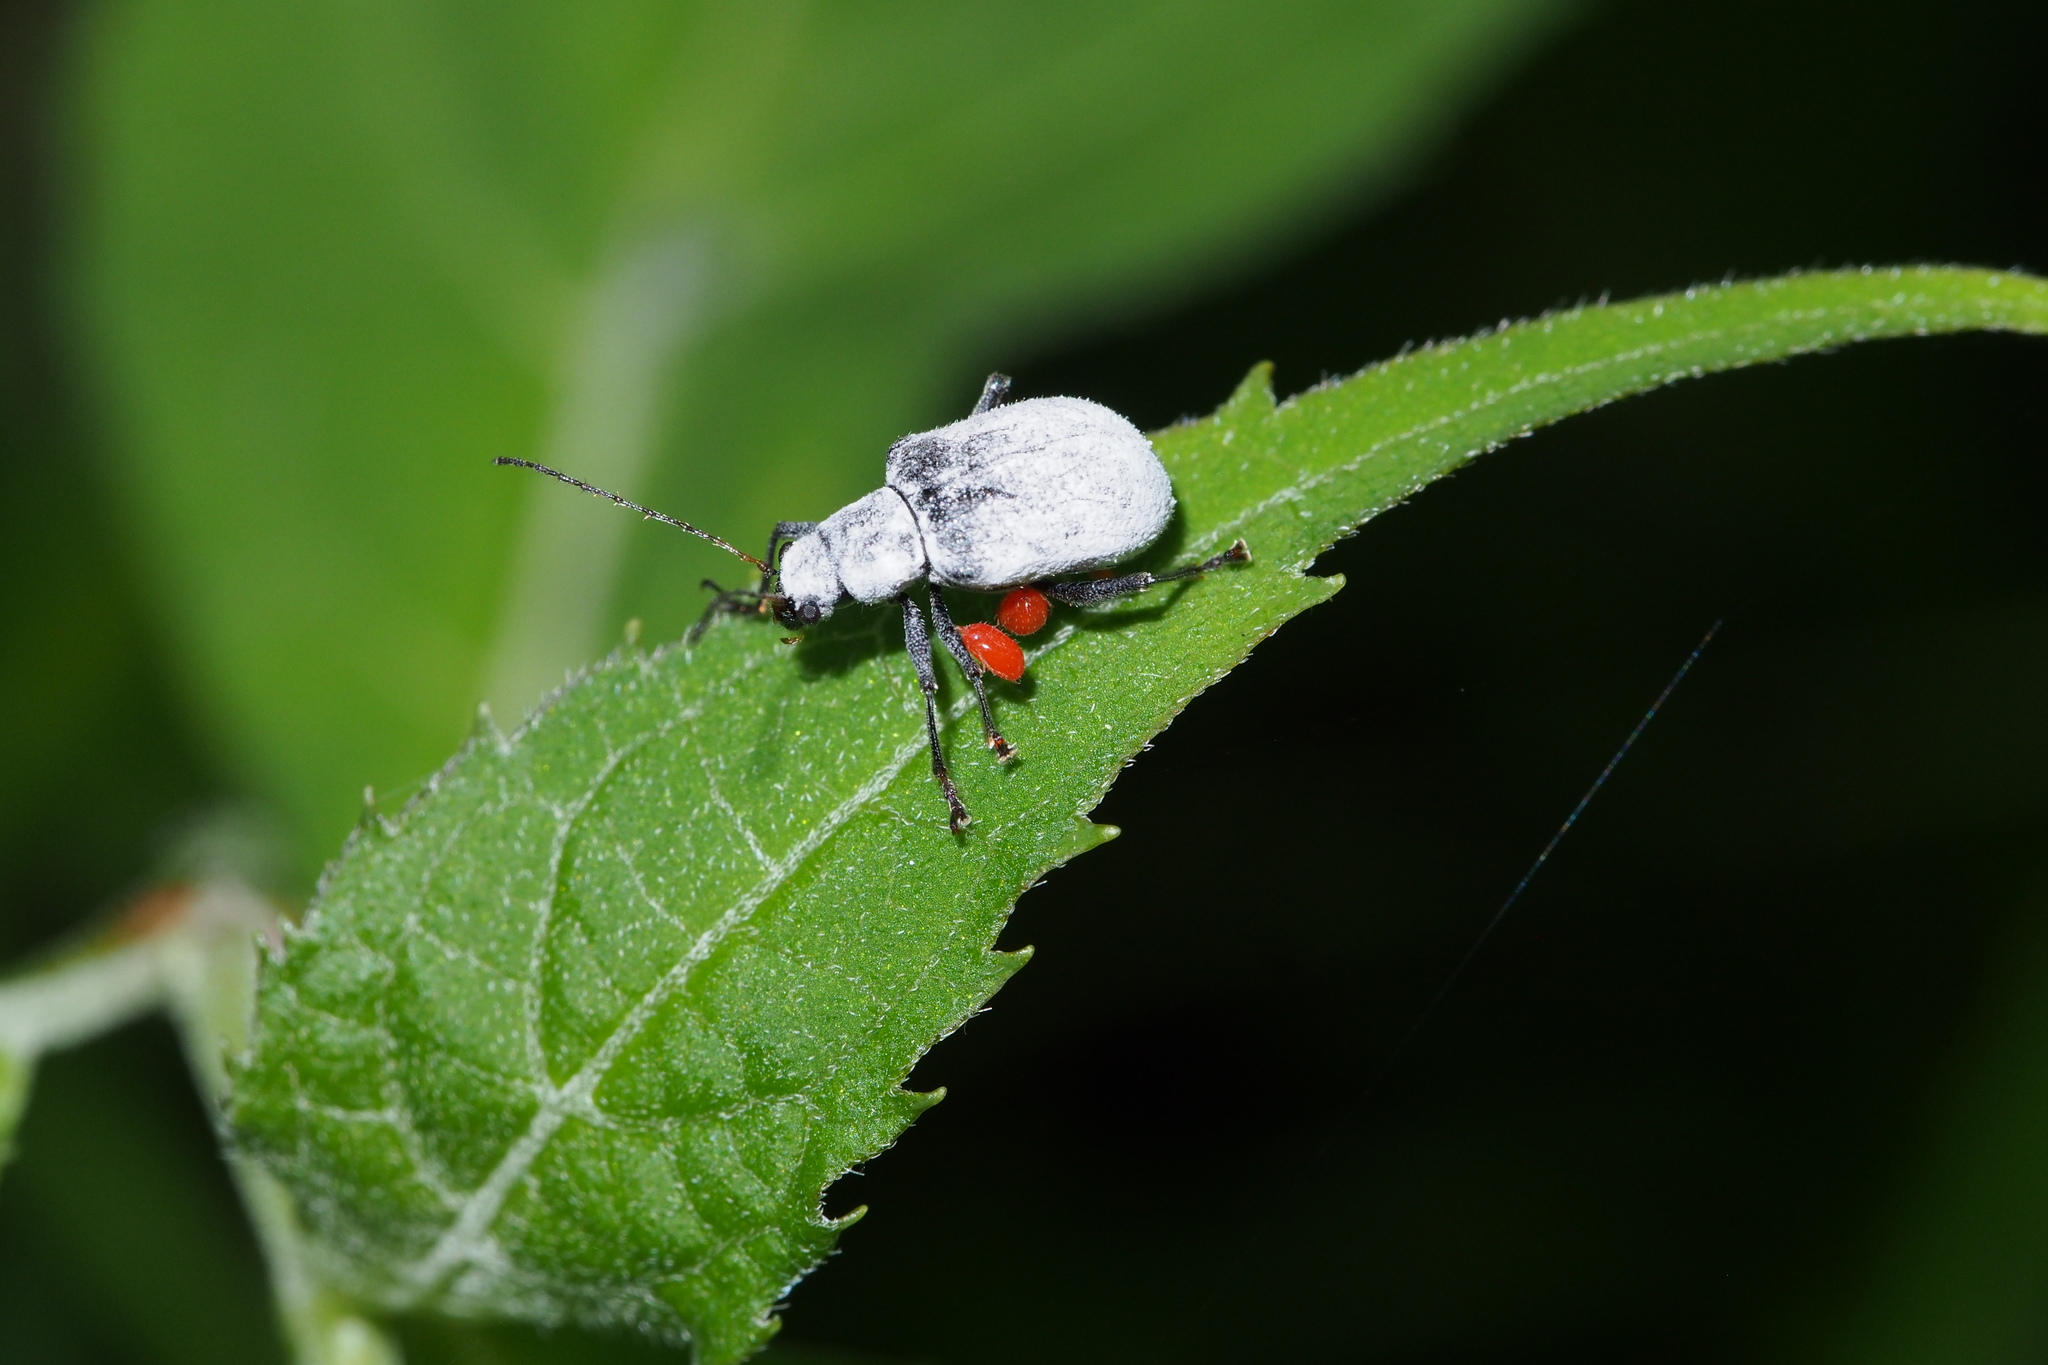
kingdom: Animalia
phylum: Arthropoda
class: Insecta
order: Coleoptera
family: Chrysomelidae
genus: Fidia
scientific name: Fidia
